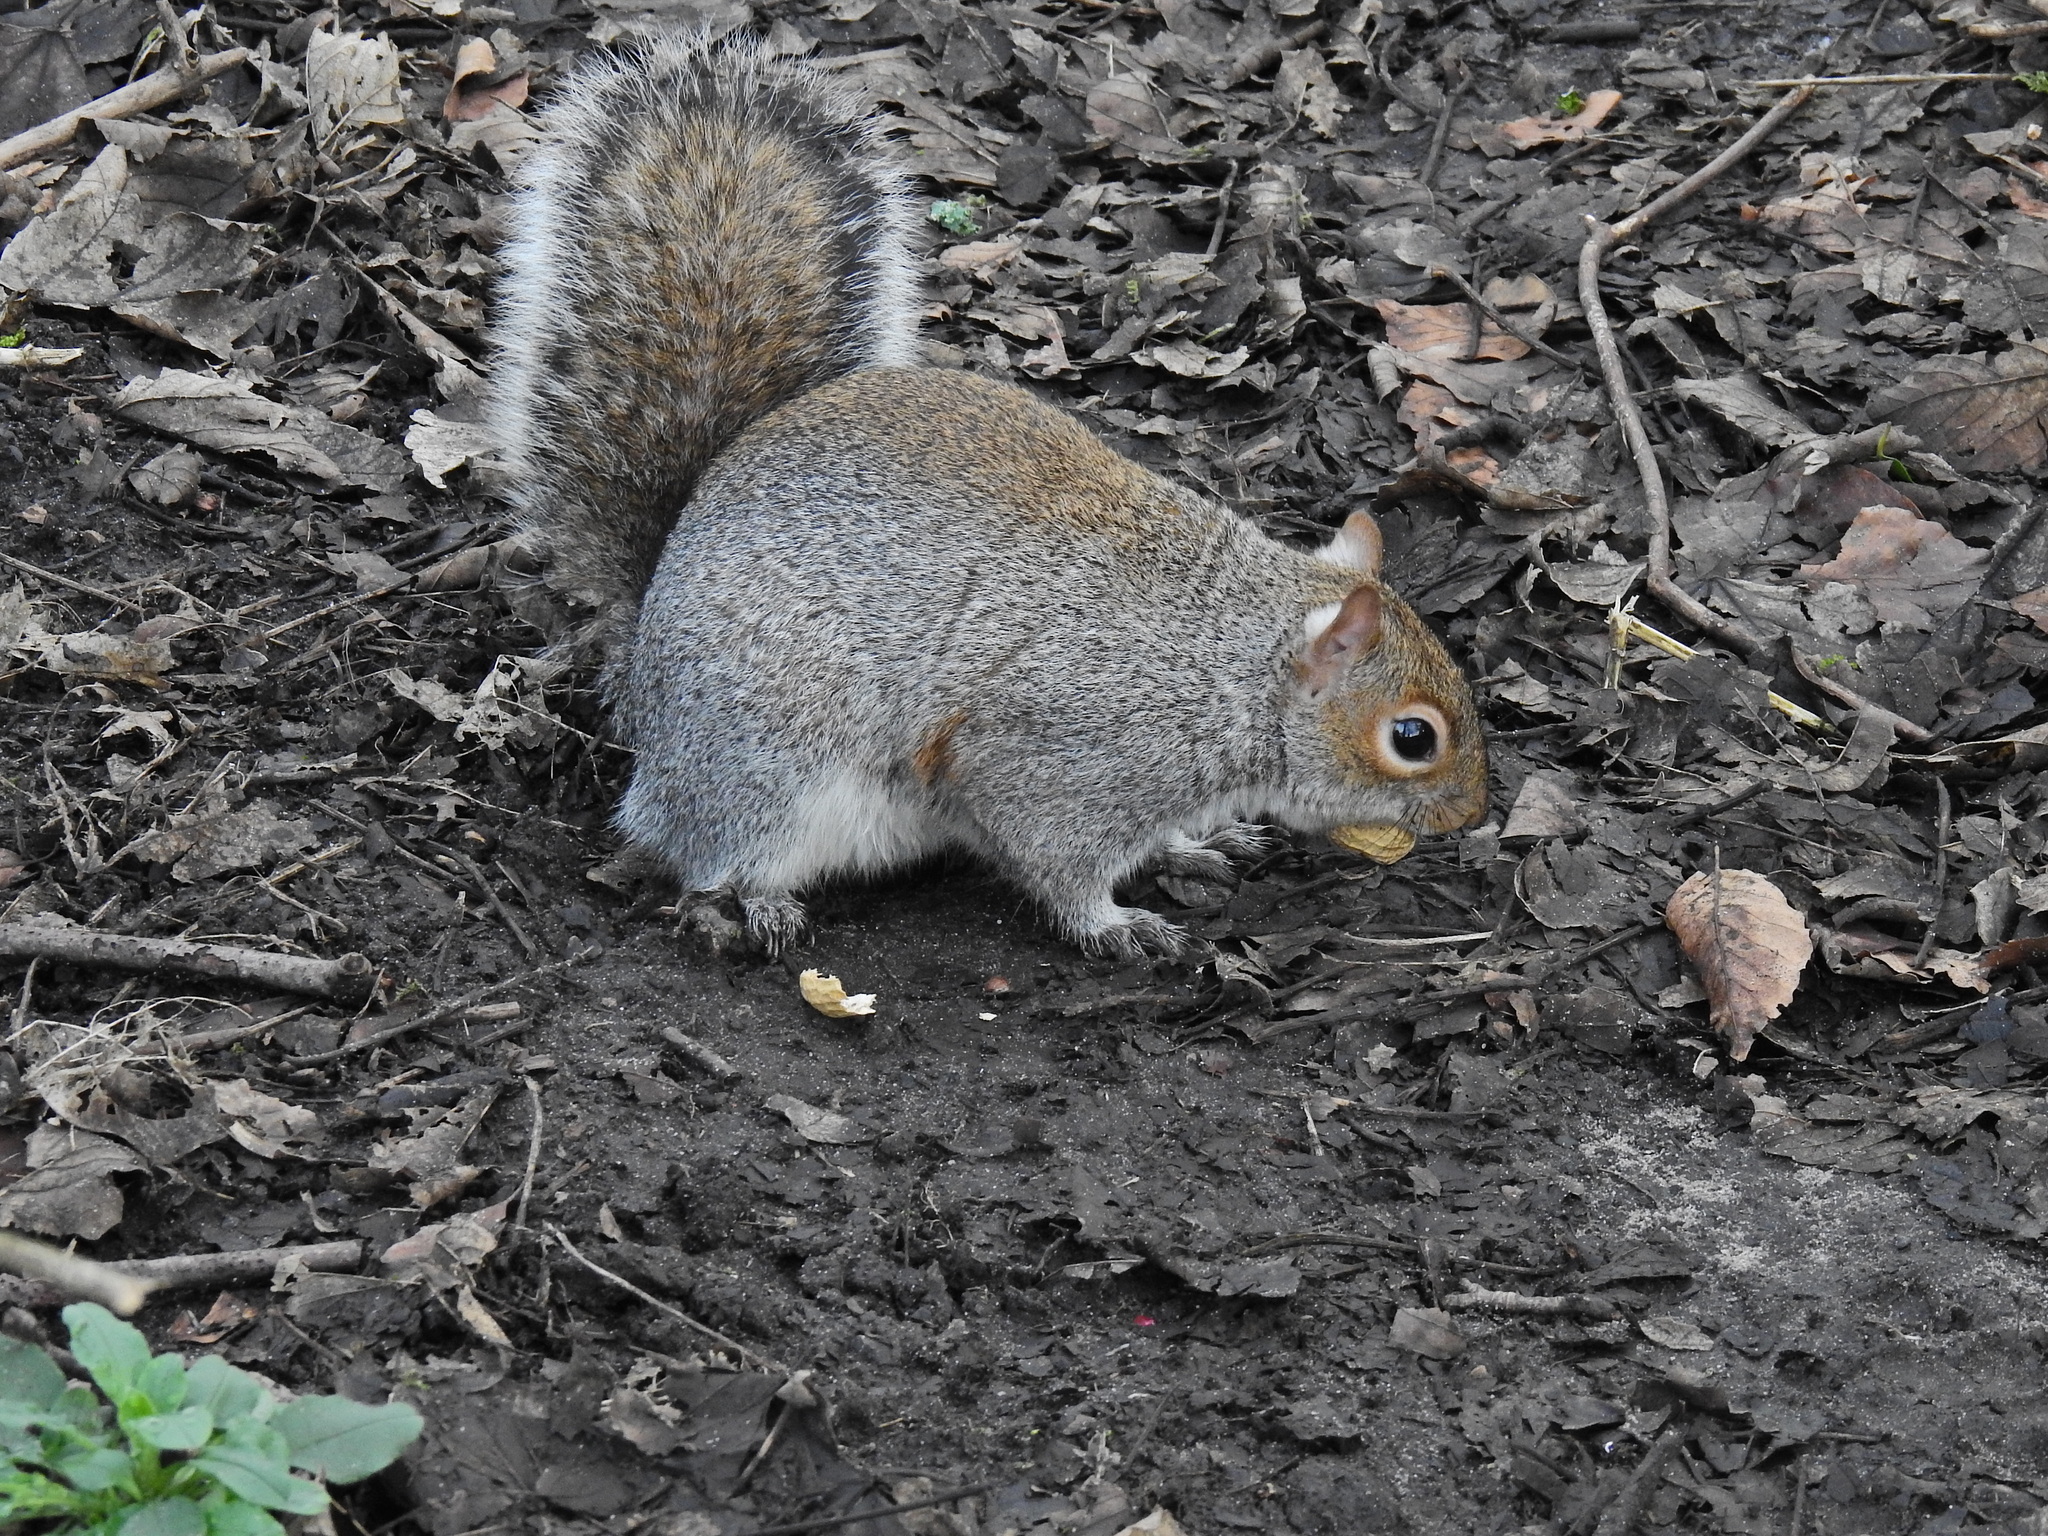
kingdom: Animalia
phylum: Chordata
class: Mammalia
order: Rodentia
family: Sciuridae
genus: Sciurus
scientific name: Sciurus carolinensis
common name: Eastern gray squirrel
